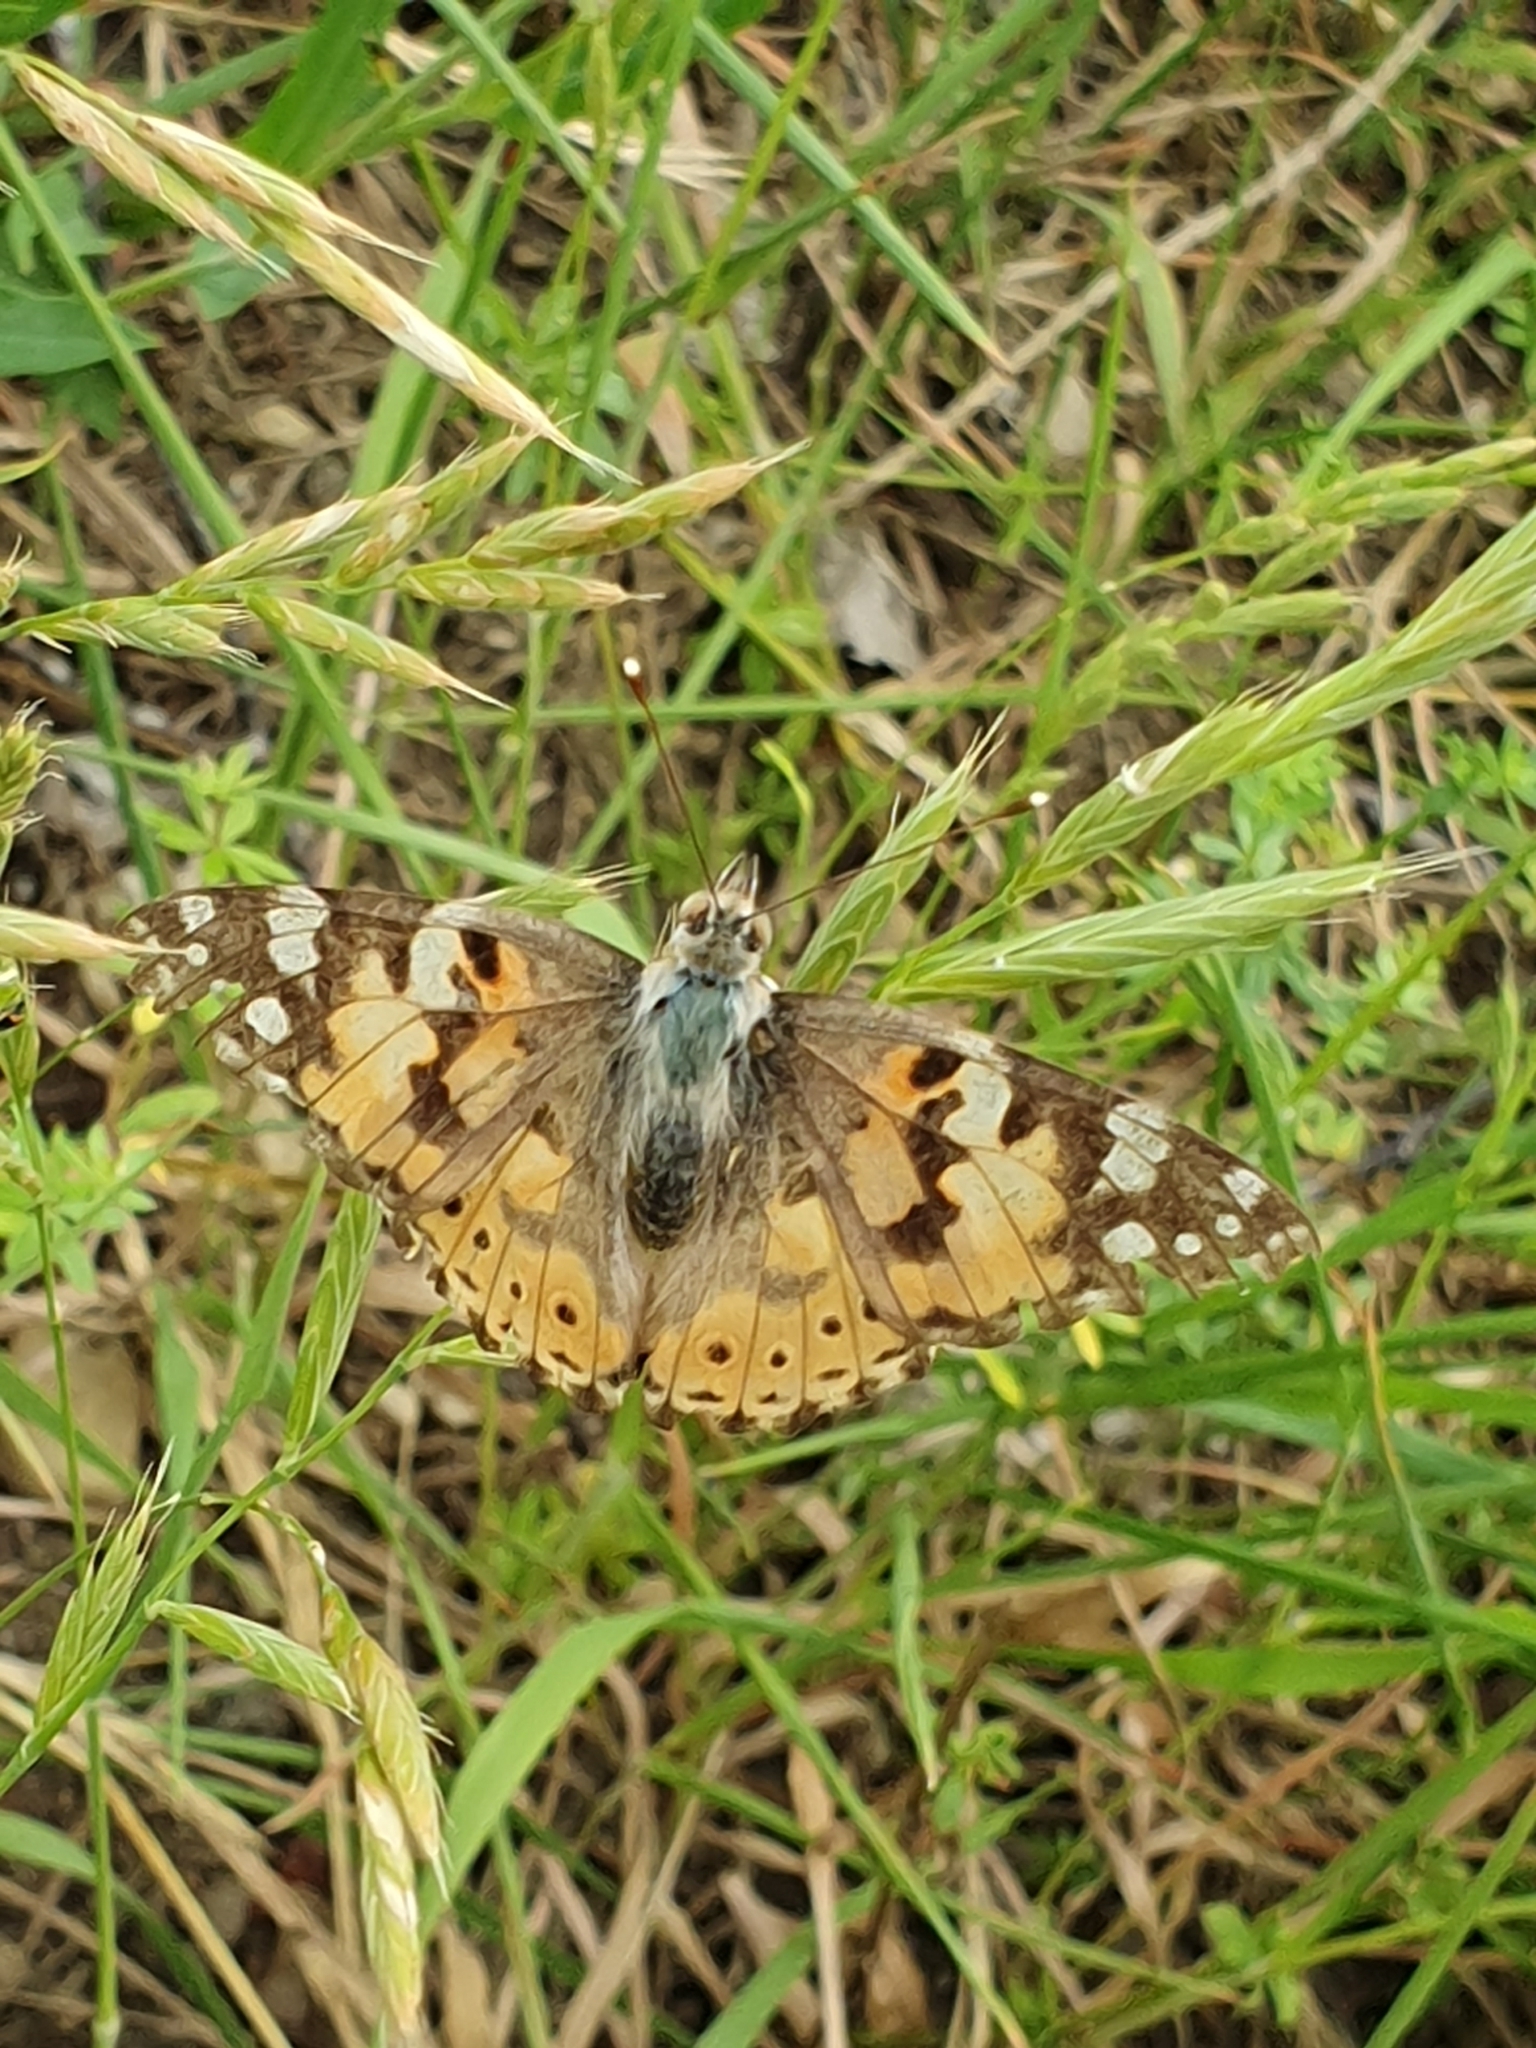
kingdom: Animalia
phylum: Arthropoda
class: Insecta
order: Lepidoptera
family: Nymphalidae
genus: Vanessa
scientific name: Vanessa cardui
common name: Painted lady
